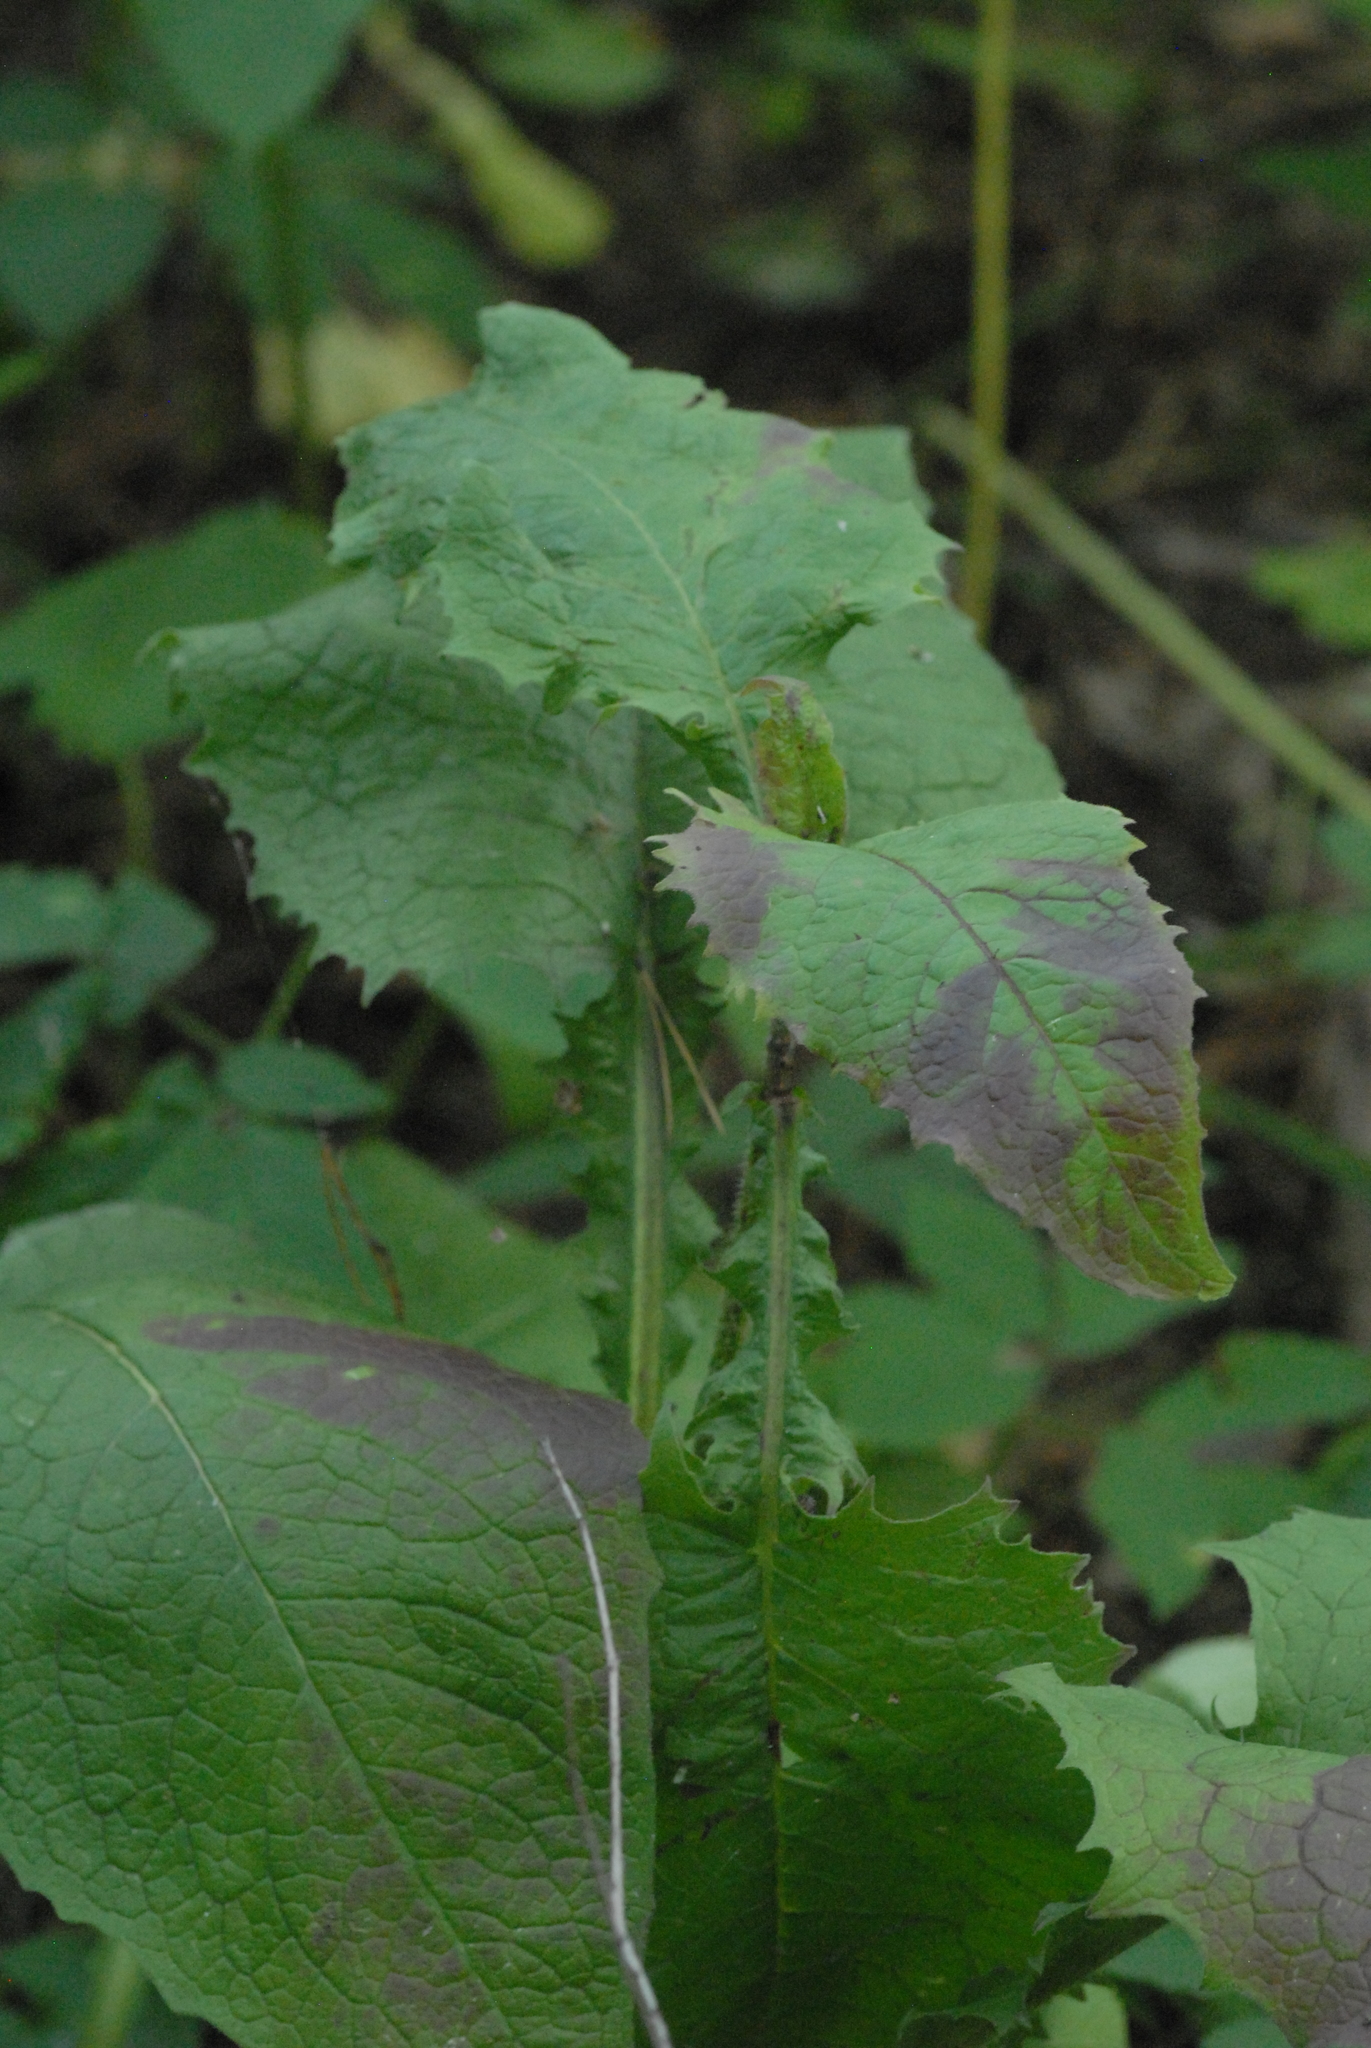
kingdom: Plantae
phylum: Tracheophyta
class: Magnoliopsida
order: Asterales
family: Asteraceae
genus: Crepis
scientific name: Crepis sibirica
